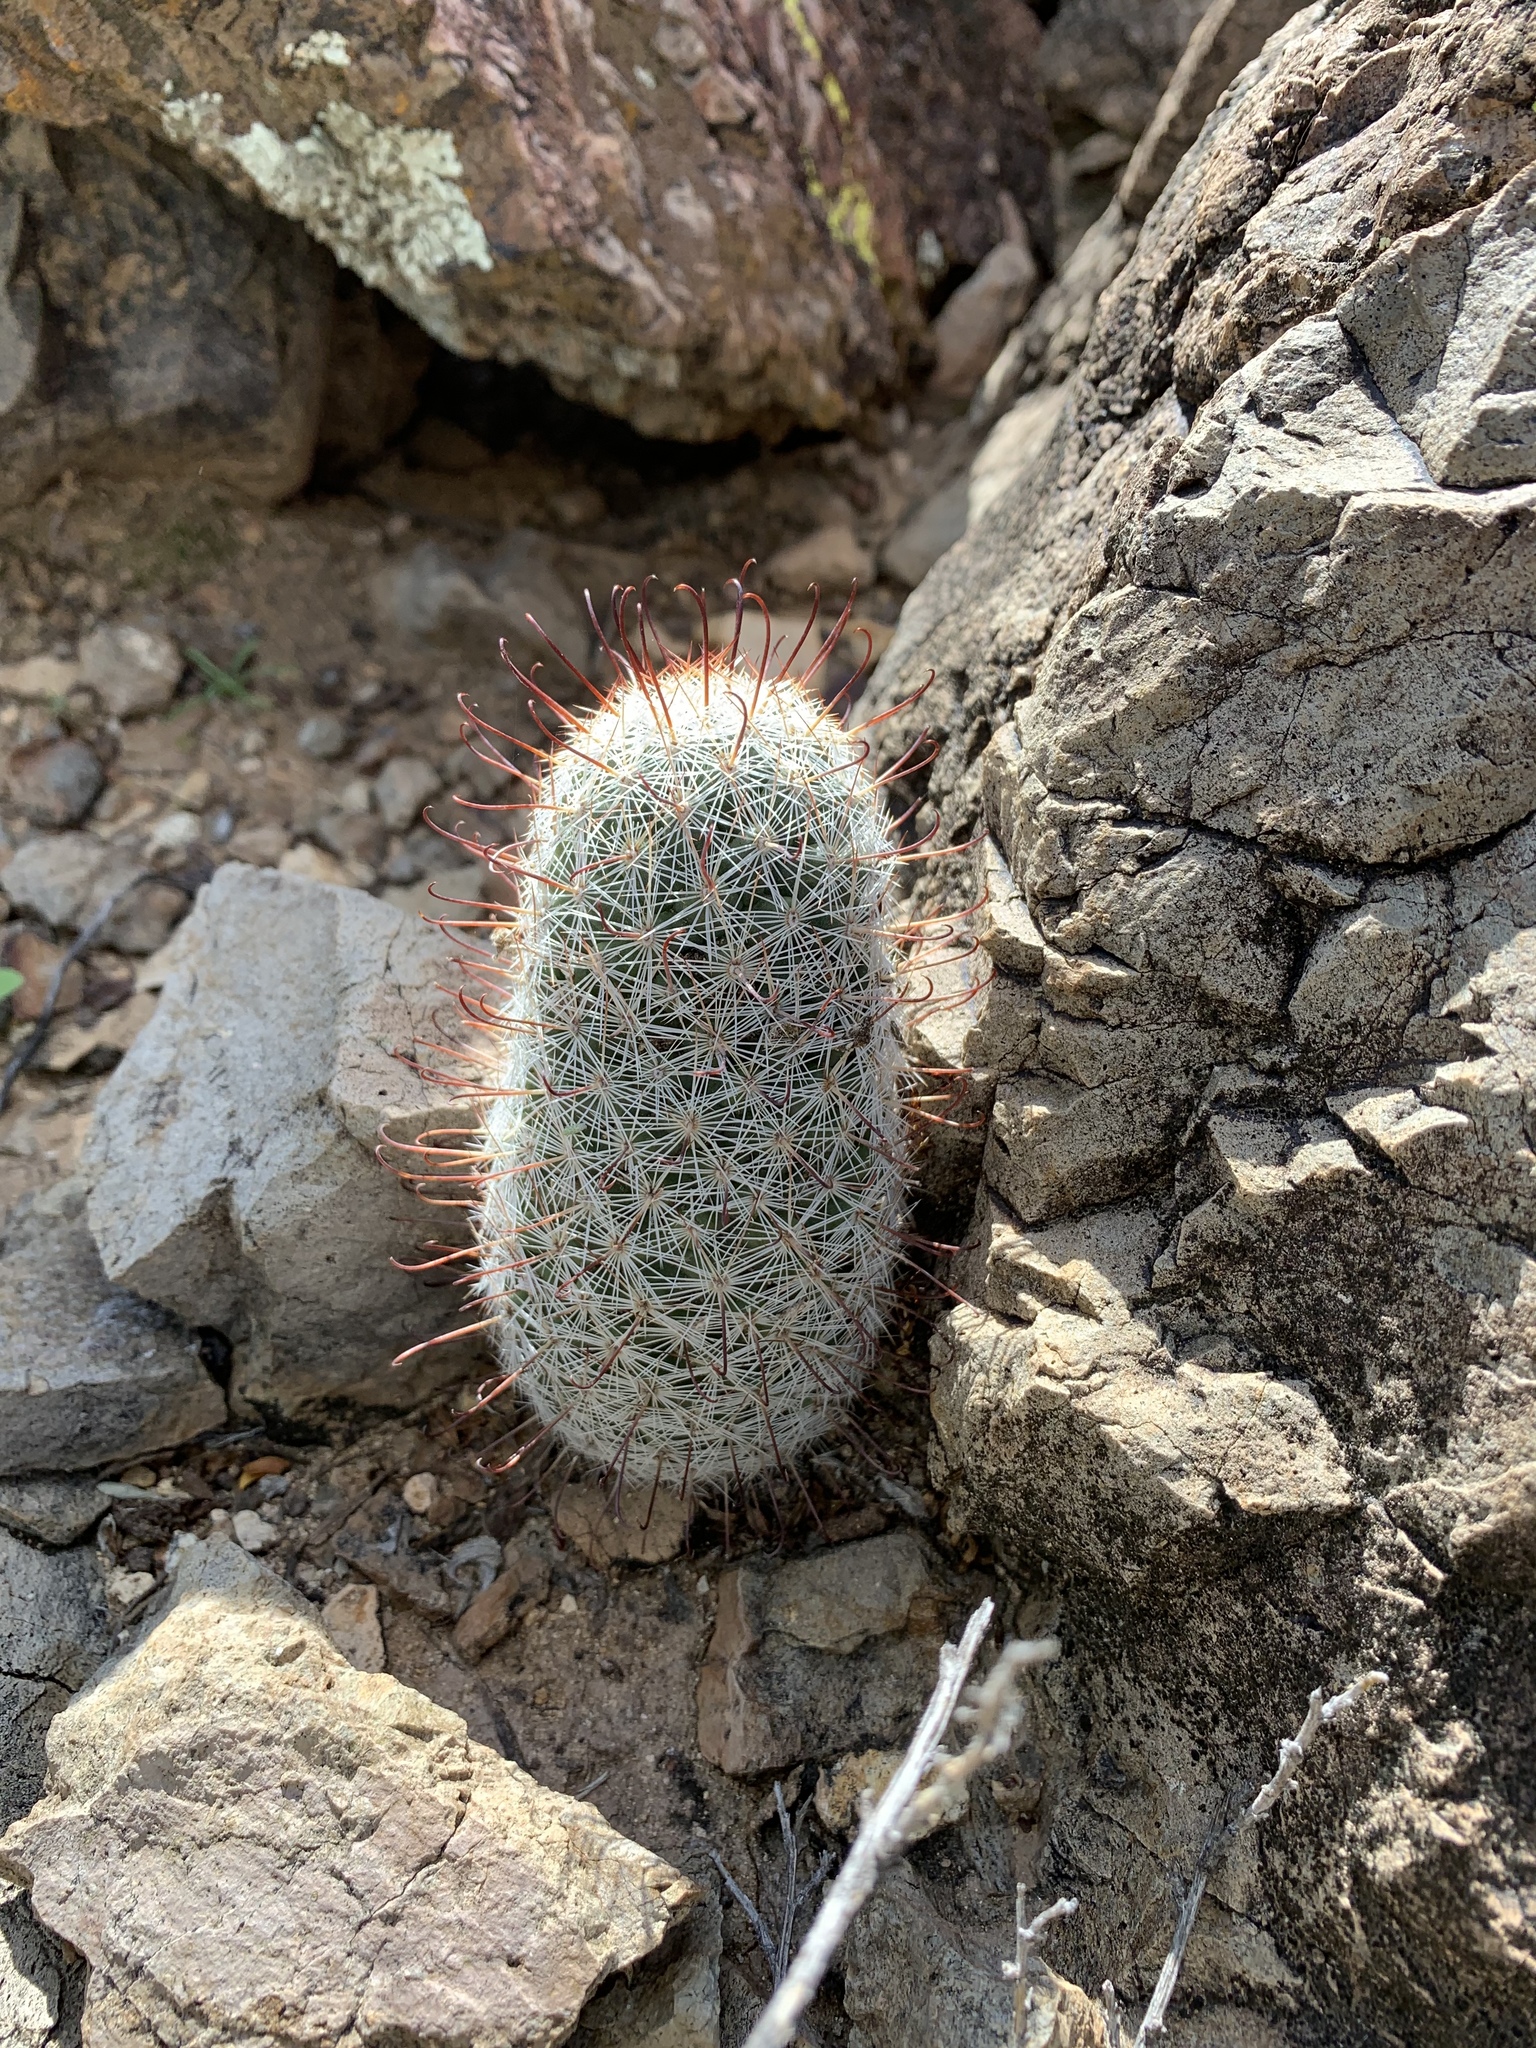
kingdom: Plantae
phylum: Tracheophyta
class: Magnoliopsida
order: Caryophyllales
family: Cactaceae
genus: Cochemiea
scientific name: Cochemiea grahamii
